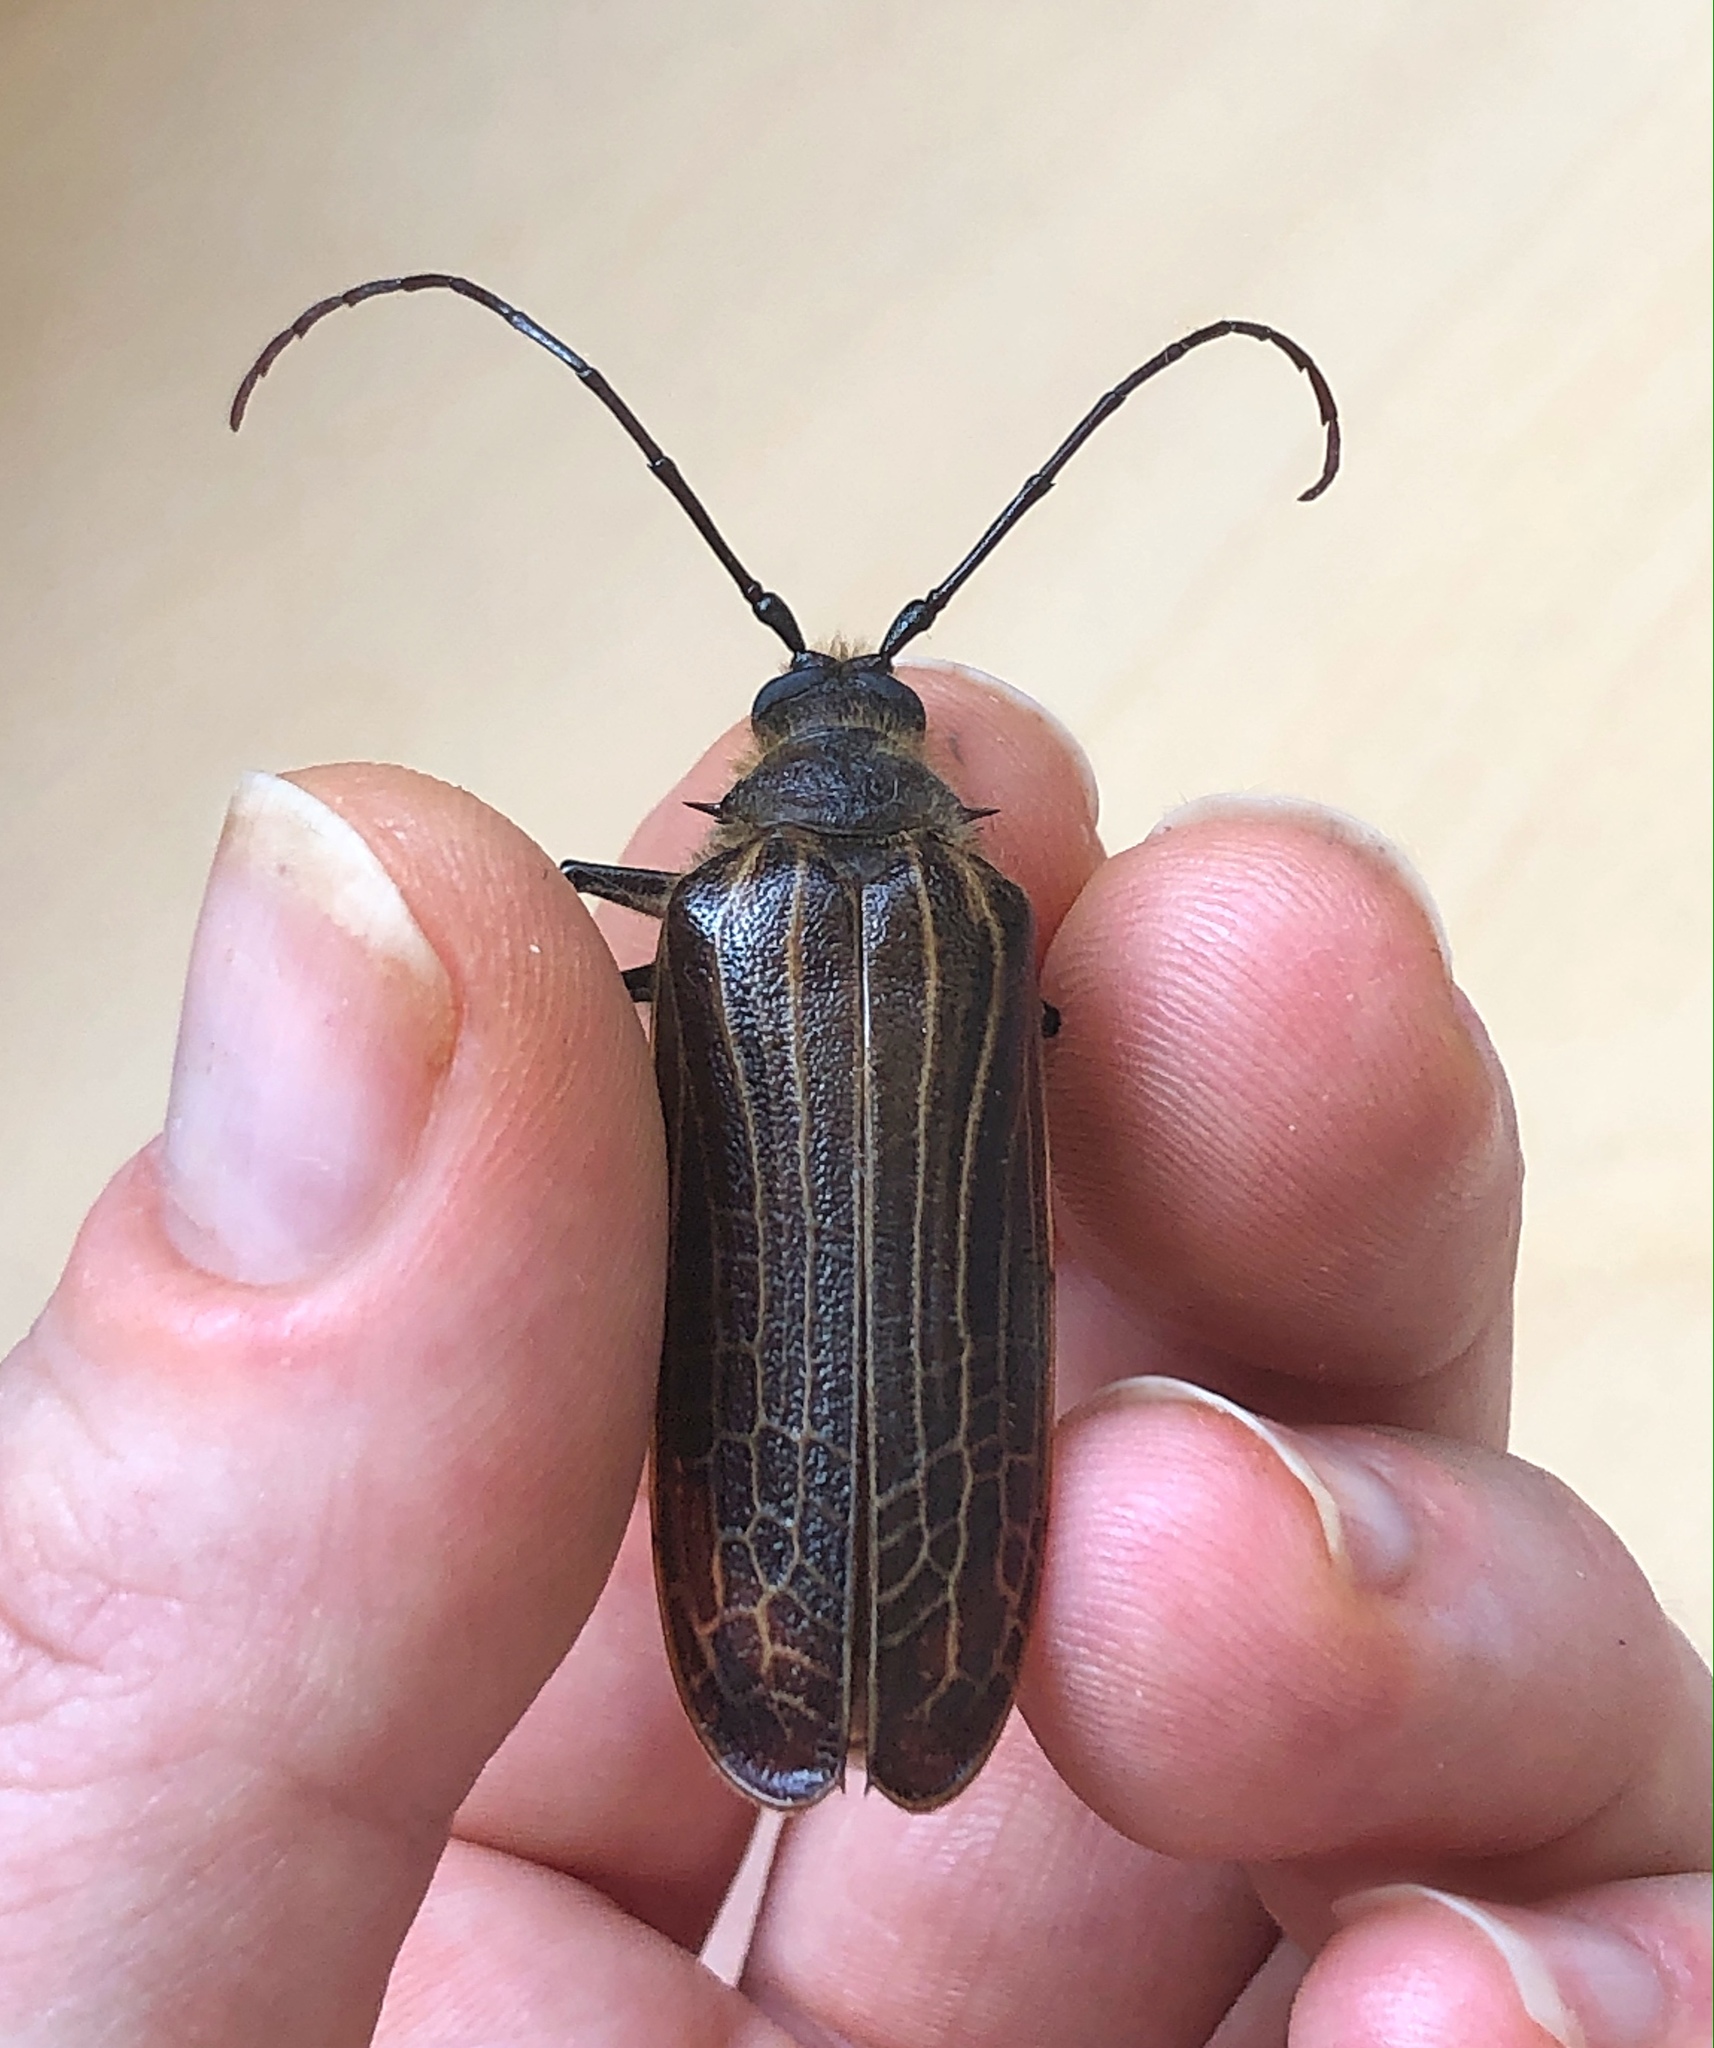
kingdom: Animalia
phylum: Arthropoda
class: Insecta
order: Coleoptera
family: Cerambycidae
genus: Prionoplus
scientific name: Prionoplus reticularis
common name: Huhu beetle
